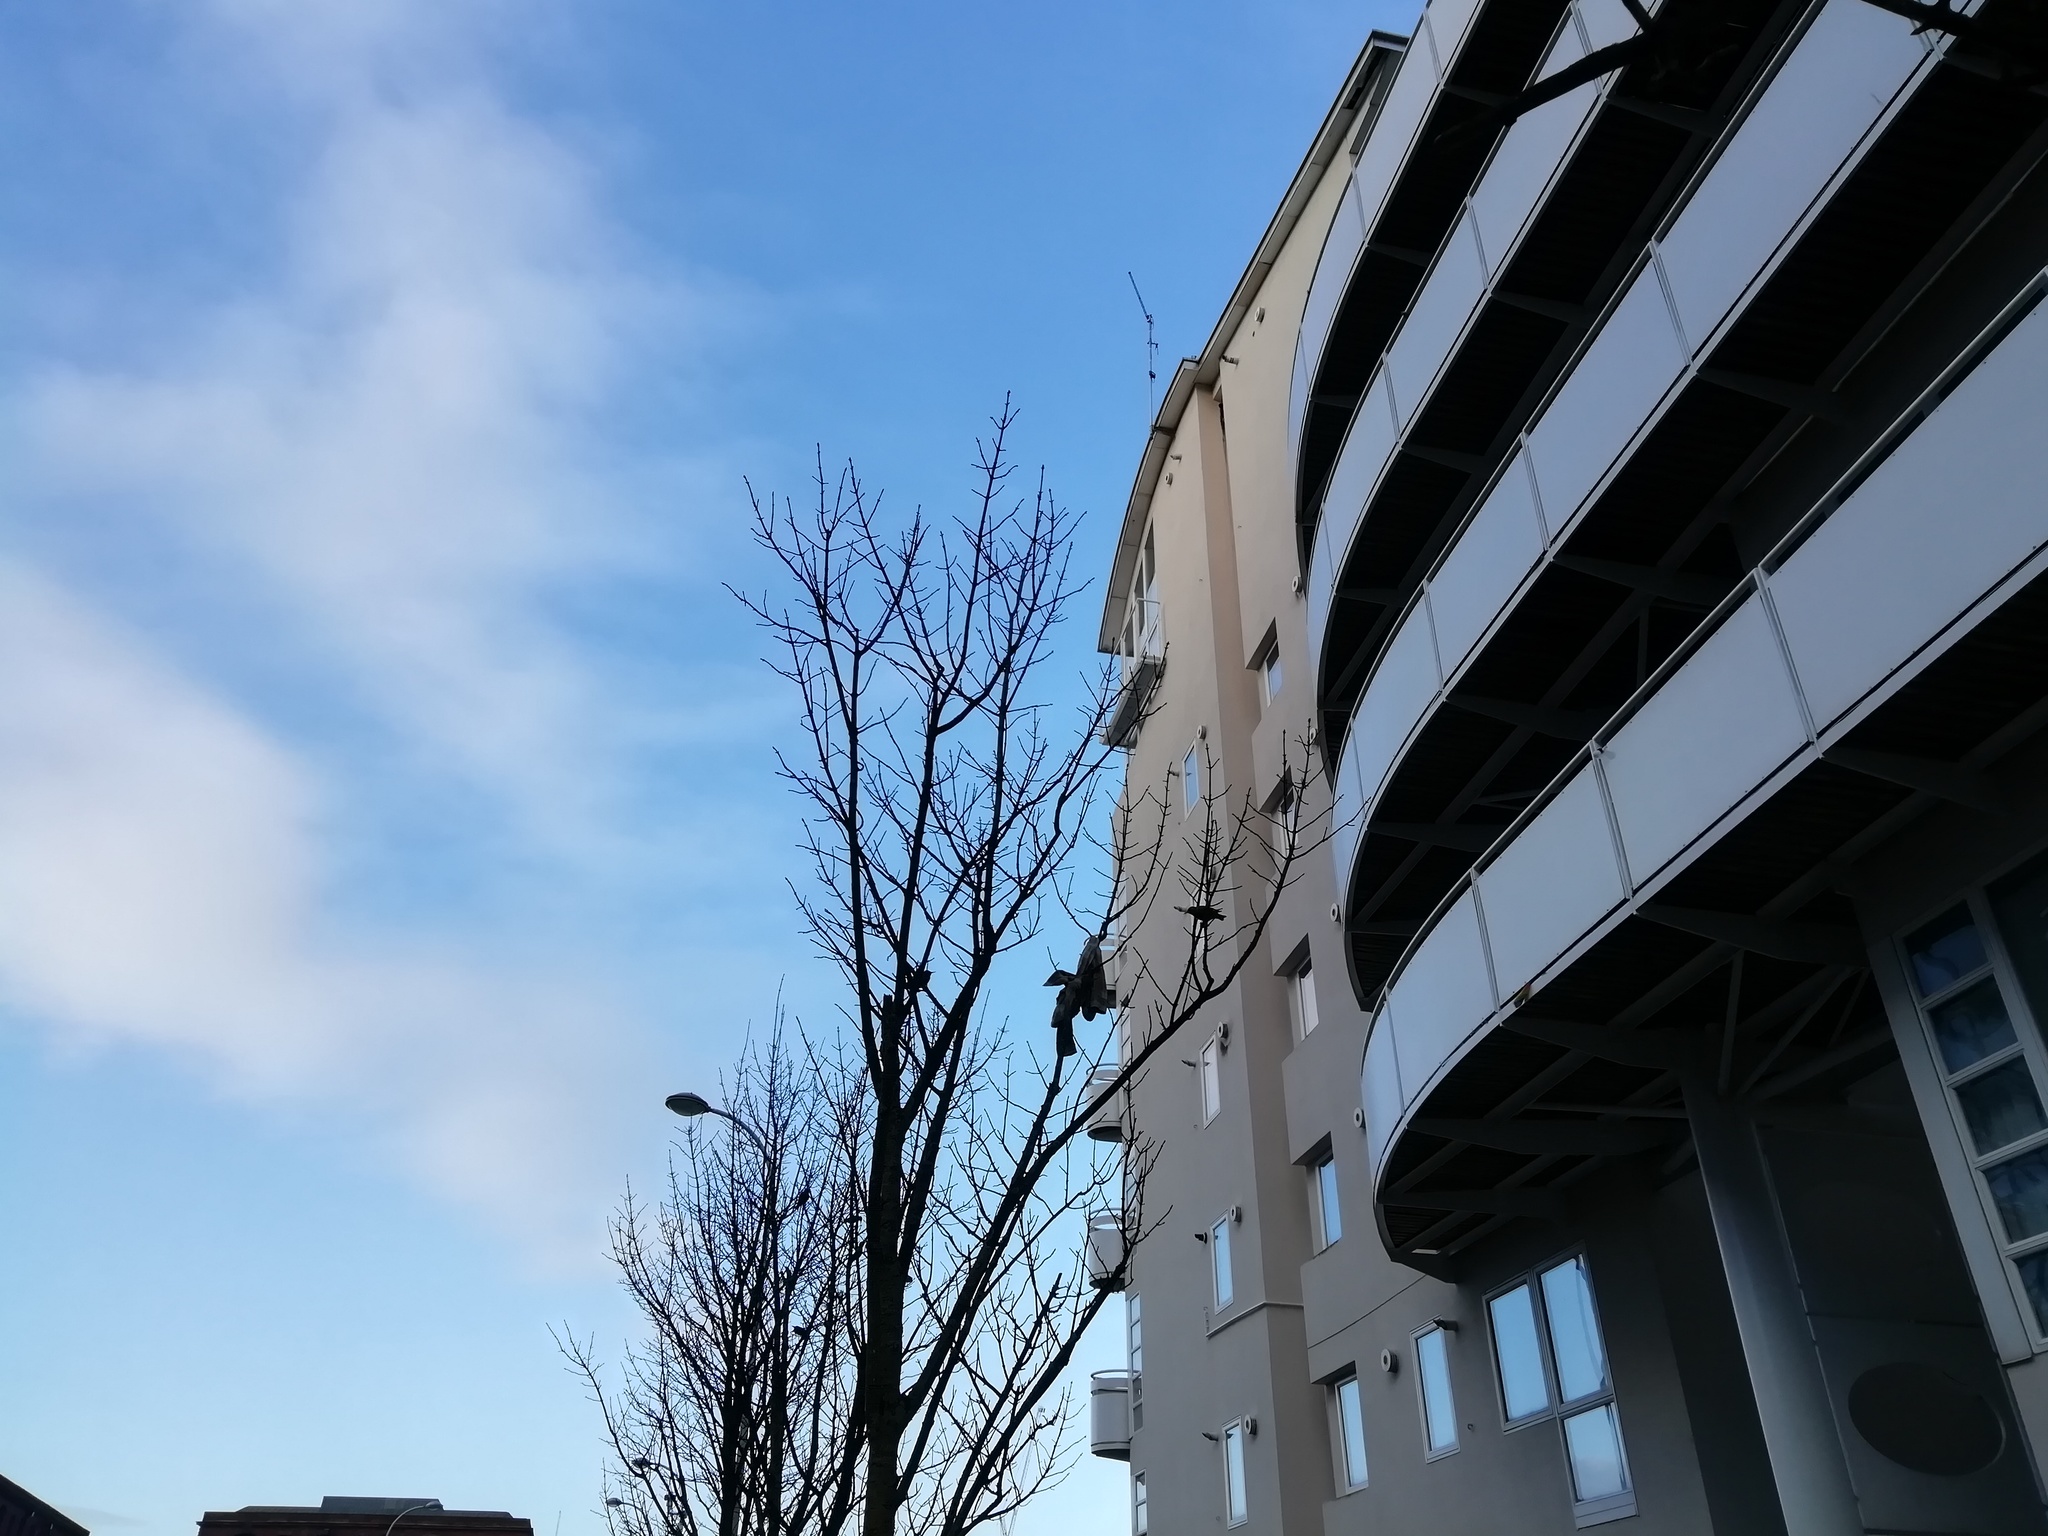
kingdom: Animalia
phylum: Chordata
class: Aves
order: Passeriformes
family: Sturnidae
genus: Sturnus
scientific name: Sturnus vulgaris
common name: Common starling
